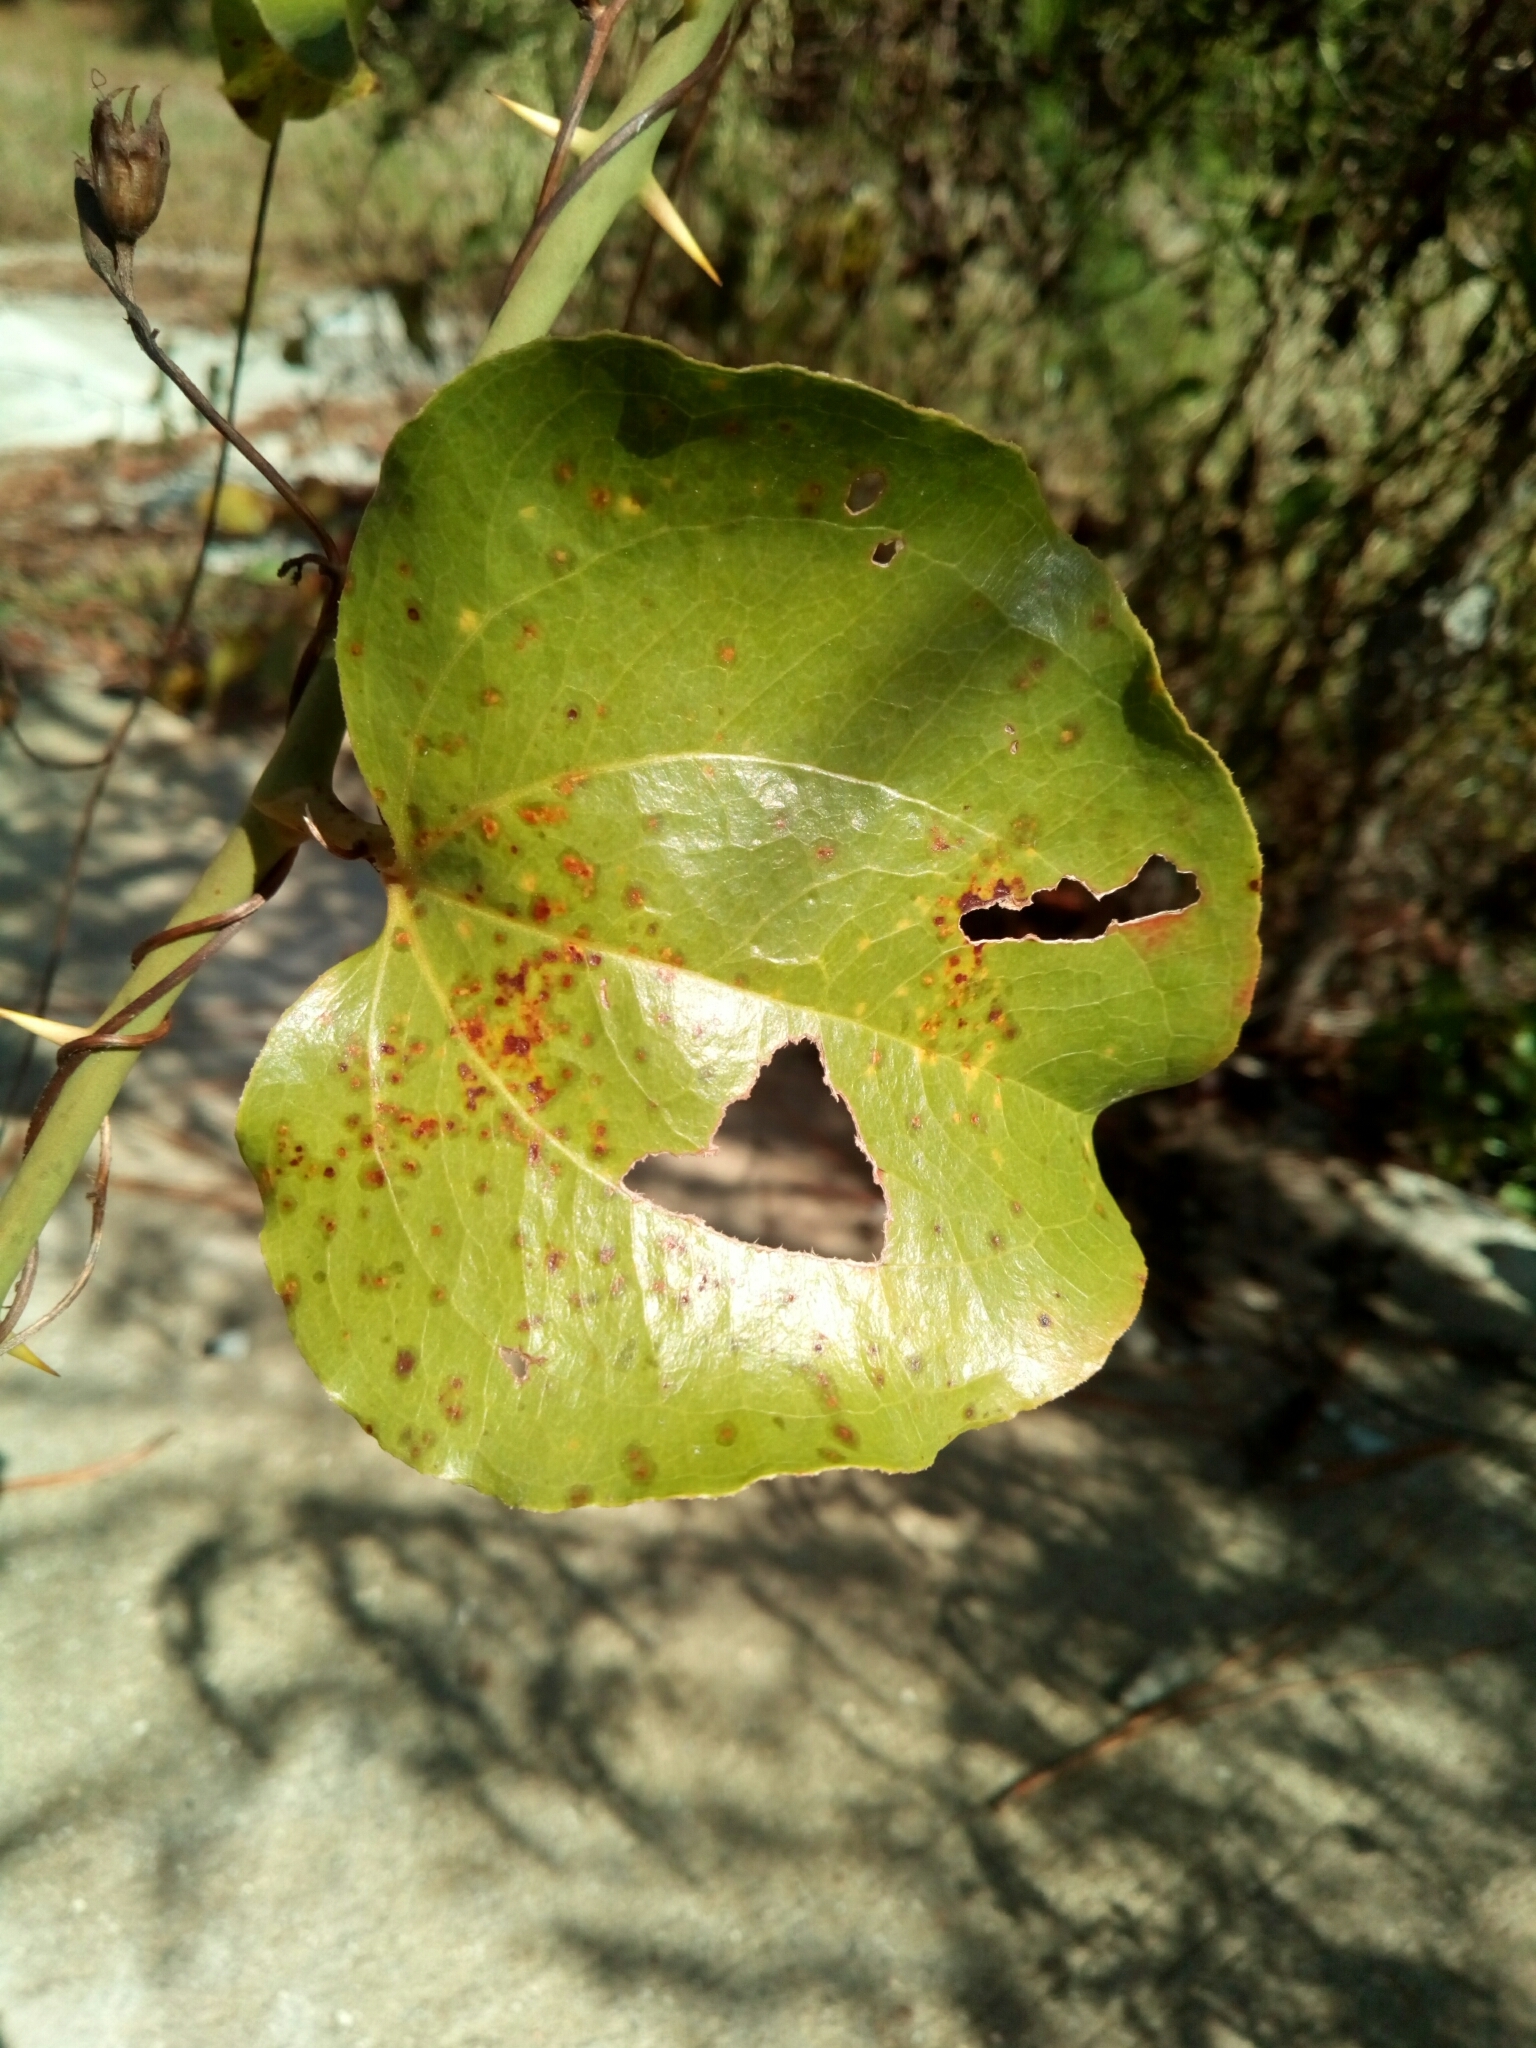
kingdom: Plantae
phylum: Tracheophyta
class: Liliopsida
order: Liliales
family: Smilacaceae
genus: Smilax
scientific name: Smilax rotundifolia
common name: Bullbriar
